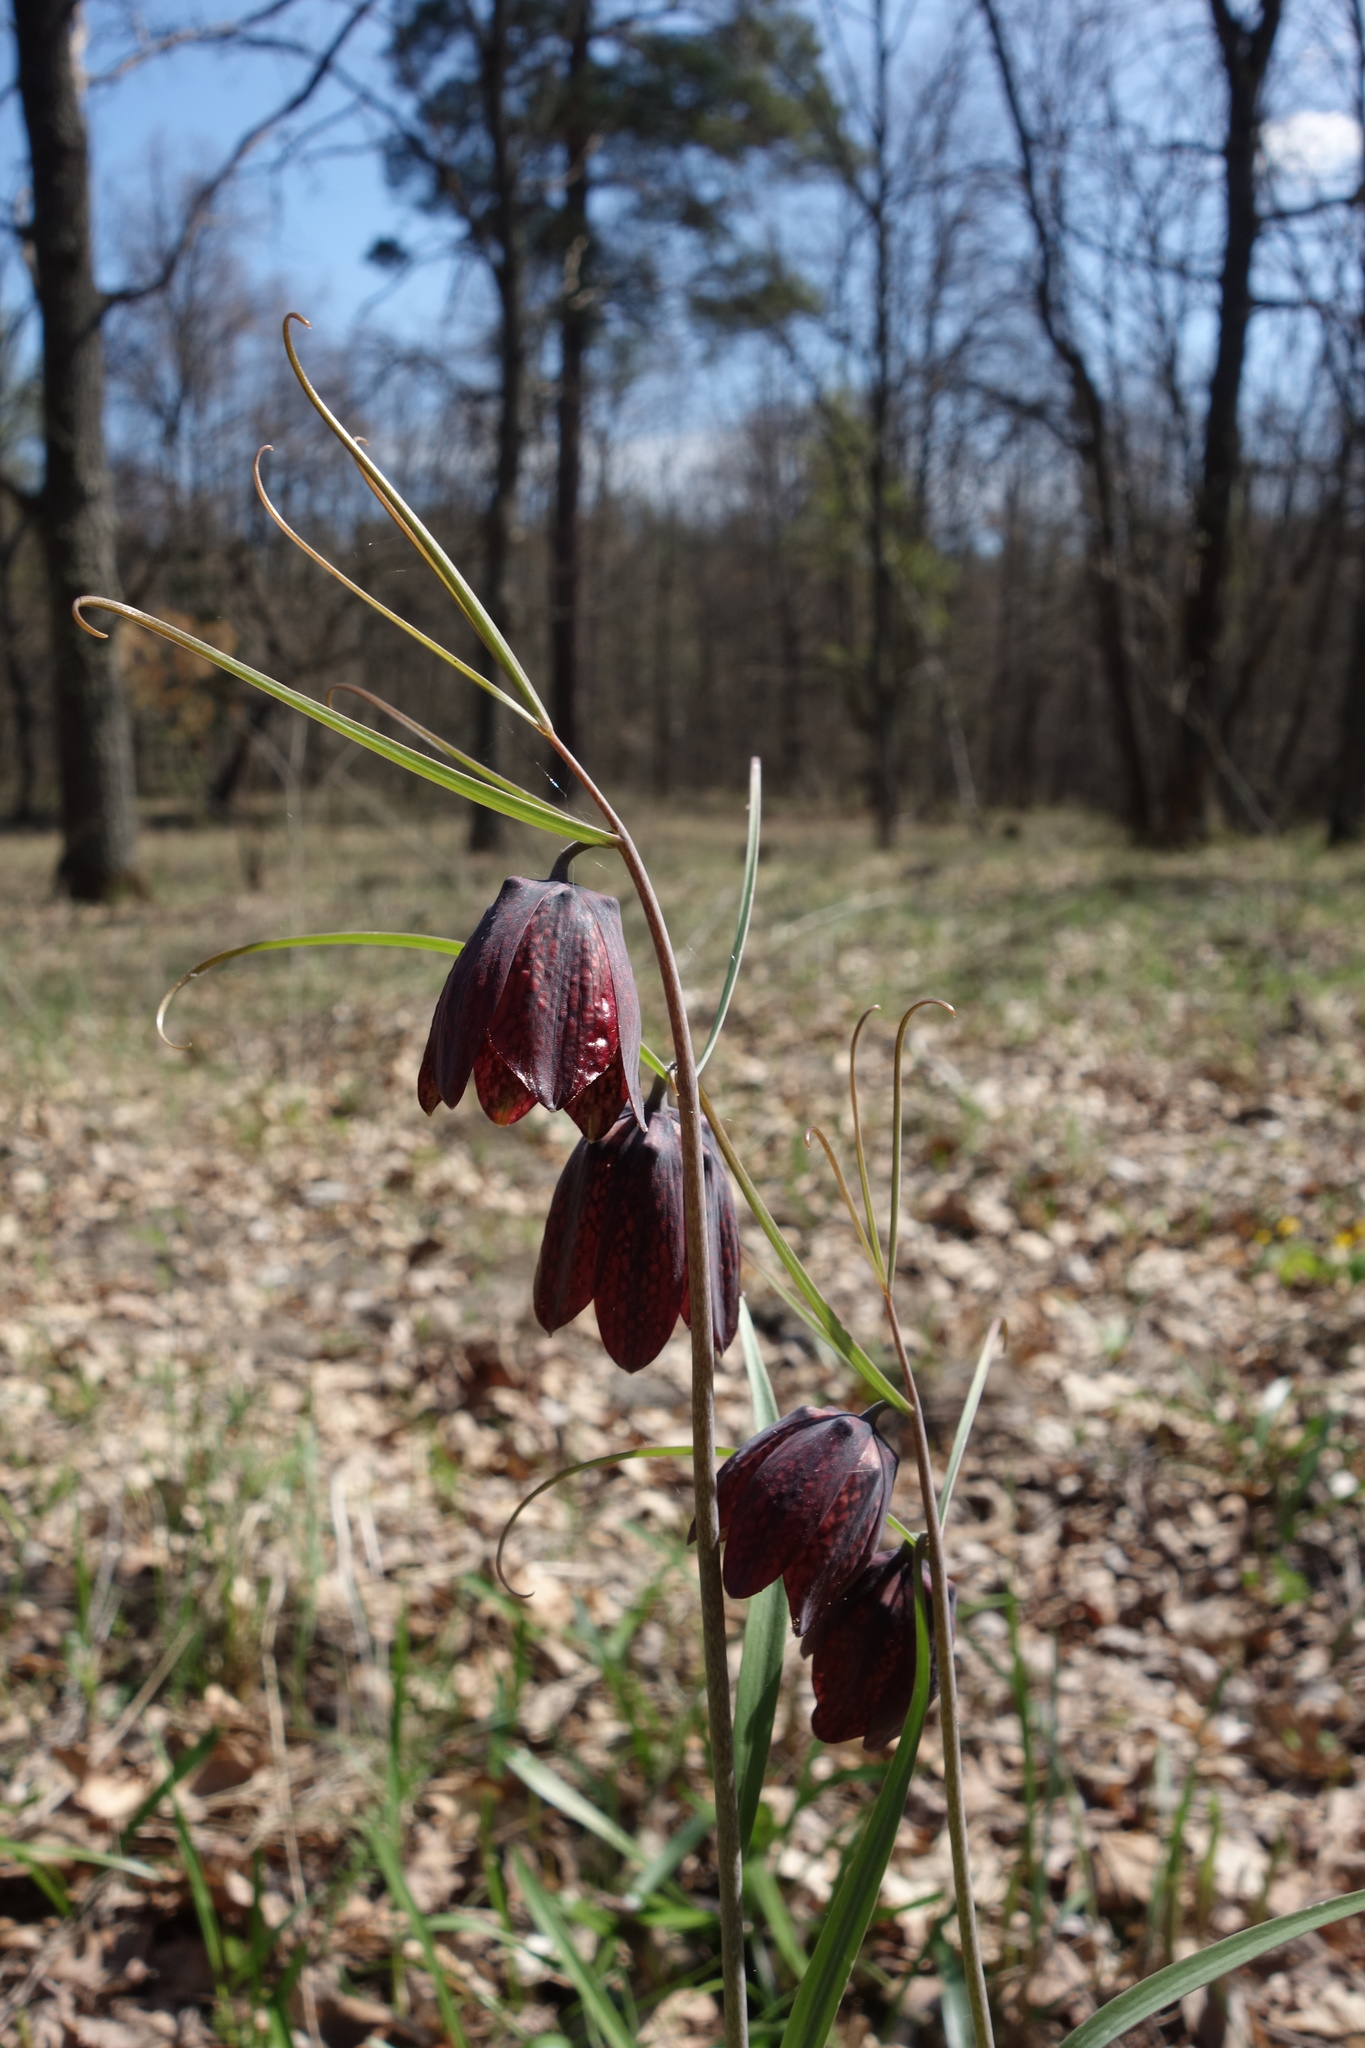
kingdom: Plantae
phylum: Tracheophyta
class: Liliopsida
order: Liliales
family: Liliaceae
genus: Fritillaria
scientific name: Fritillaria ruthenica
